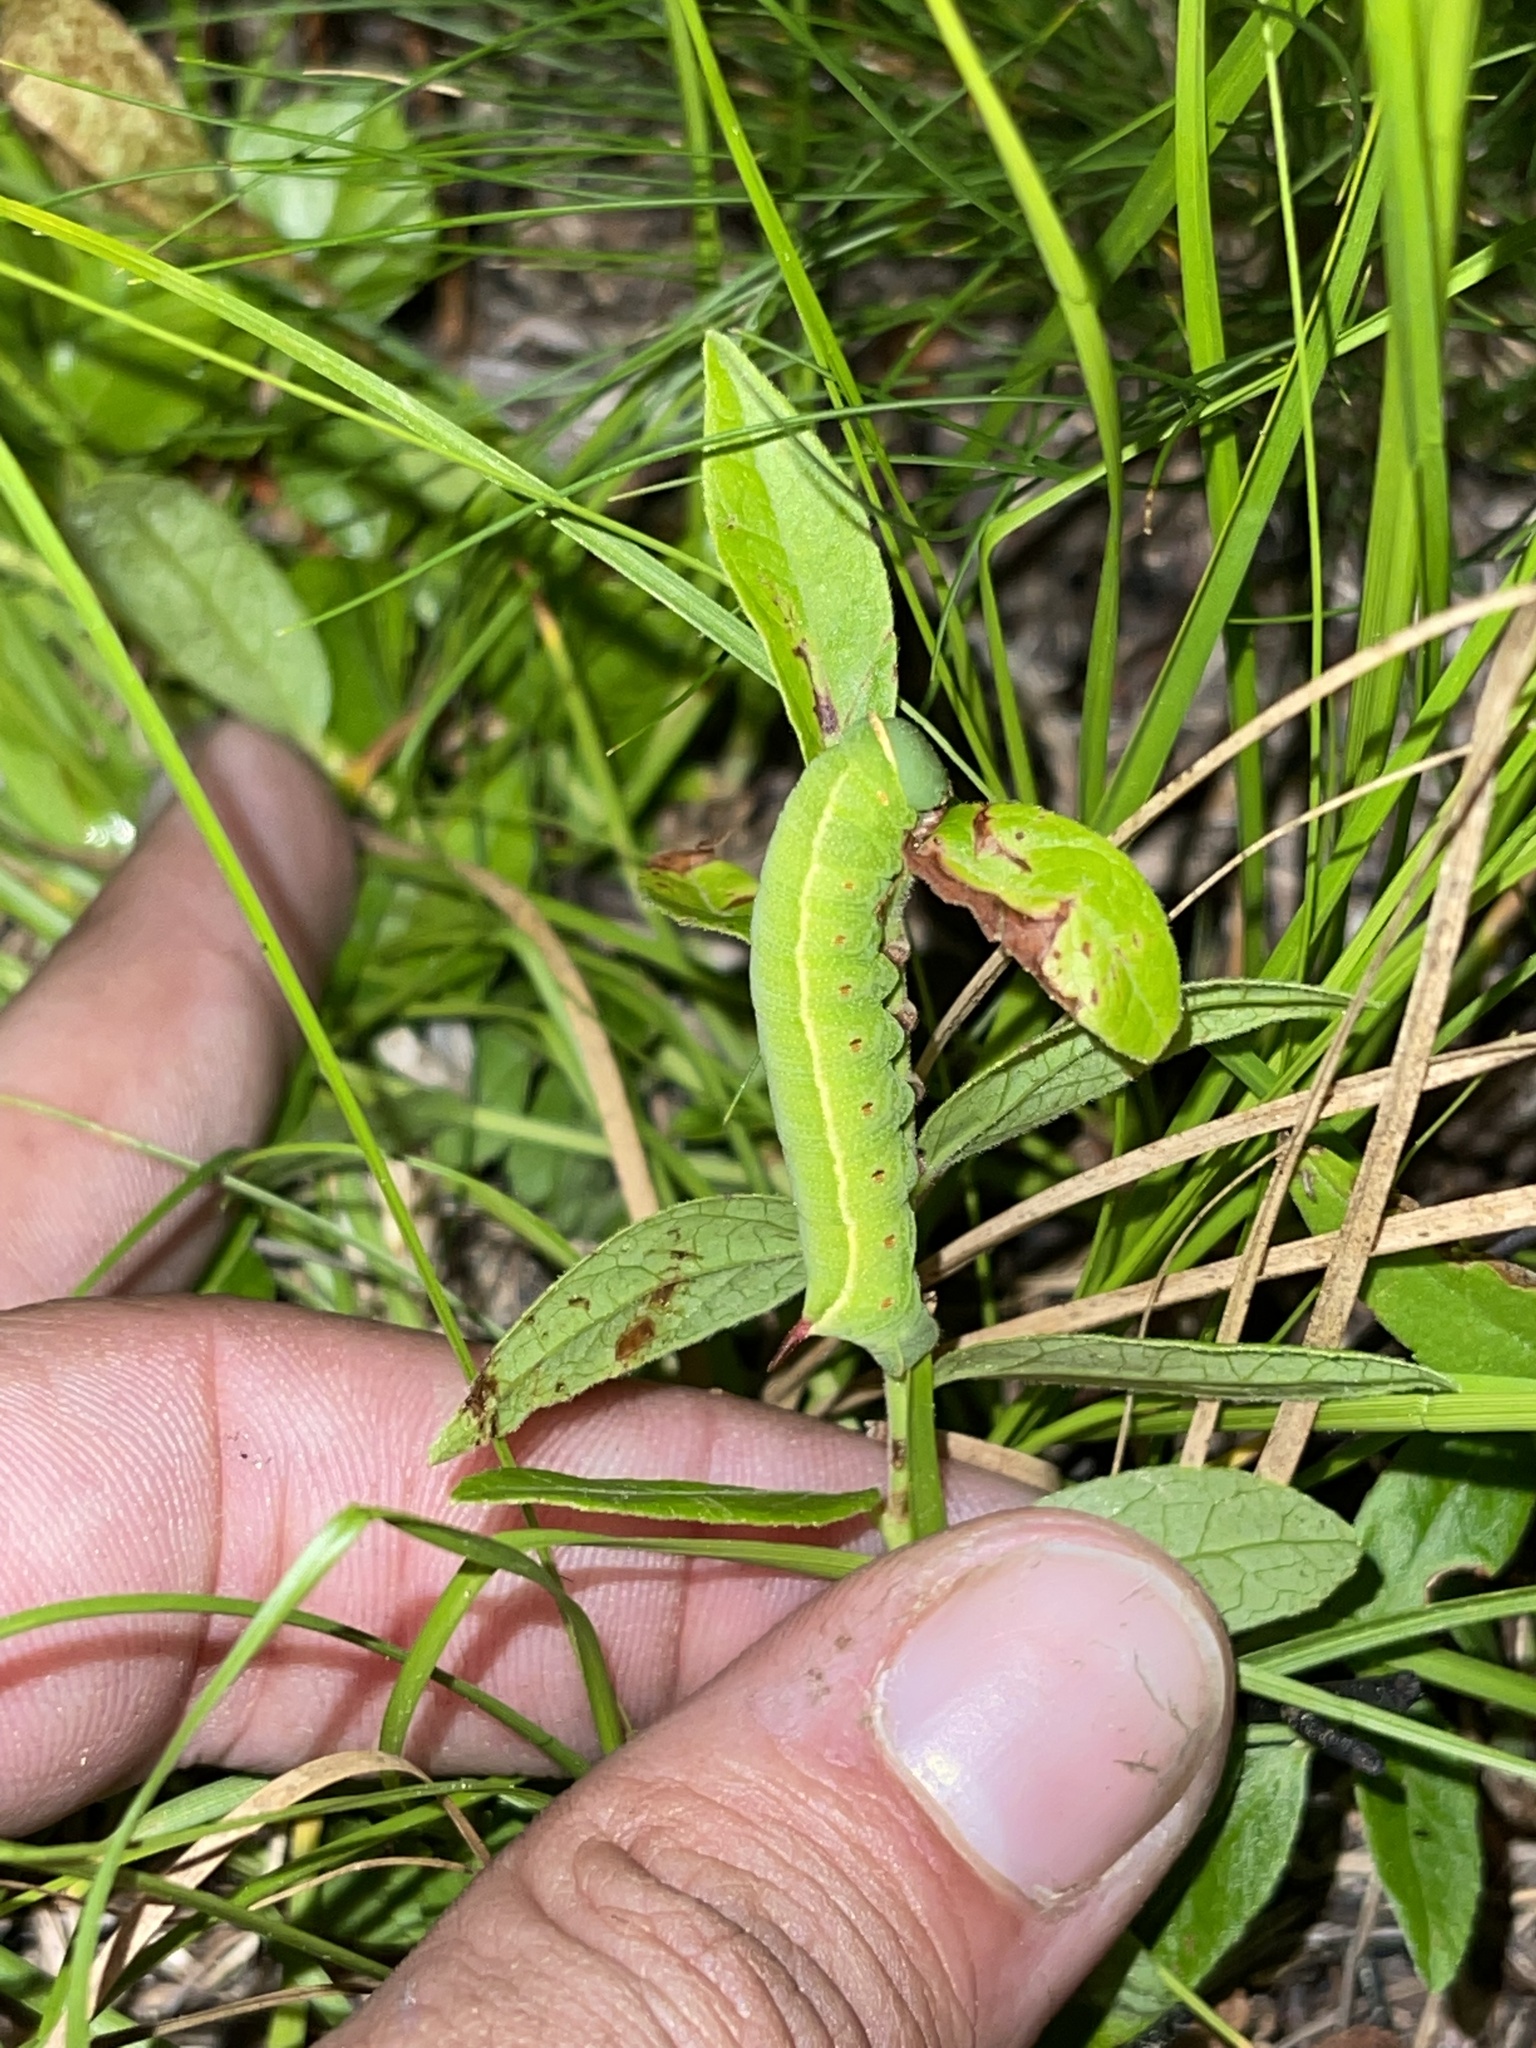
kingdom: Animalia
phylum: Arthropoda
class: Insecta
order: Lepidoptera
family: Sphingidae
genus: Hemaris
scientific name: Hemaris gracilis
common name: Graceful clearwing
